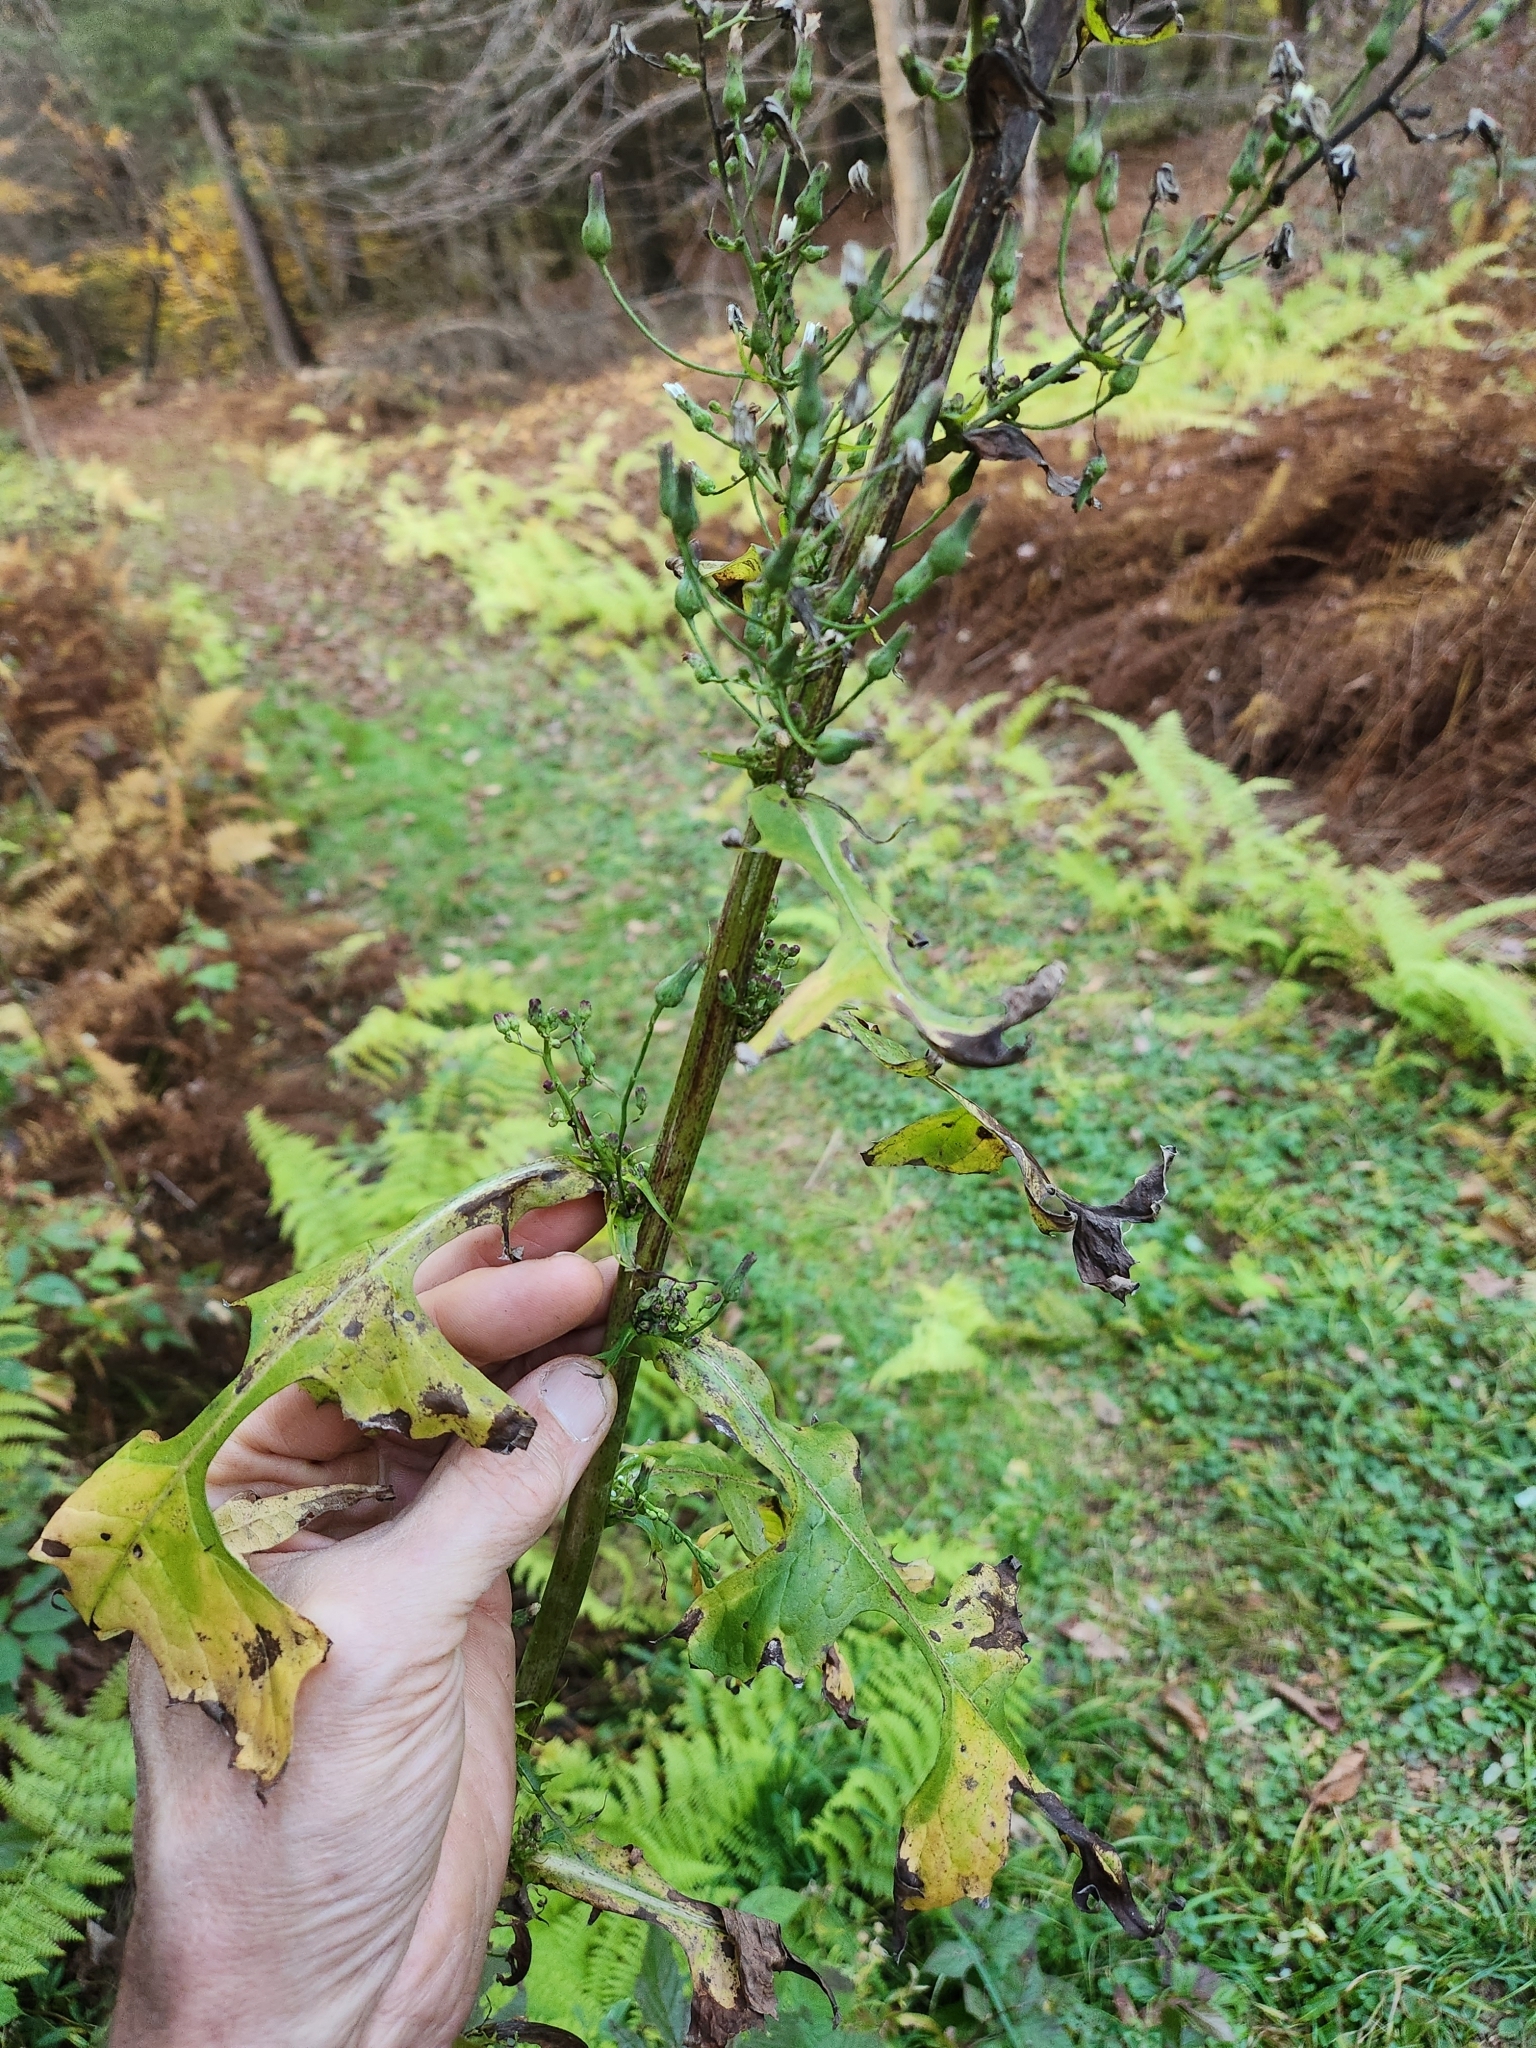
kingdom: Plantae
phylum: Tracheophyta
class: Magnoliopsida
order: Asterales
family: Asteraceae
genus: Lactuca
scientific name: Lactuca biennis
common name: Blue wood lettuce
